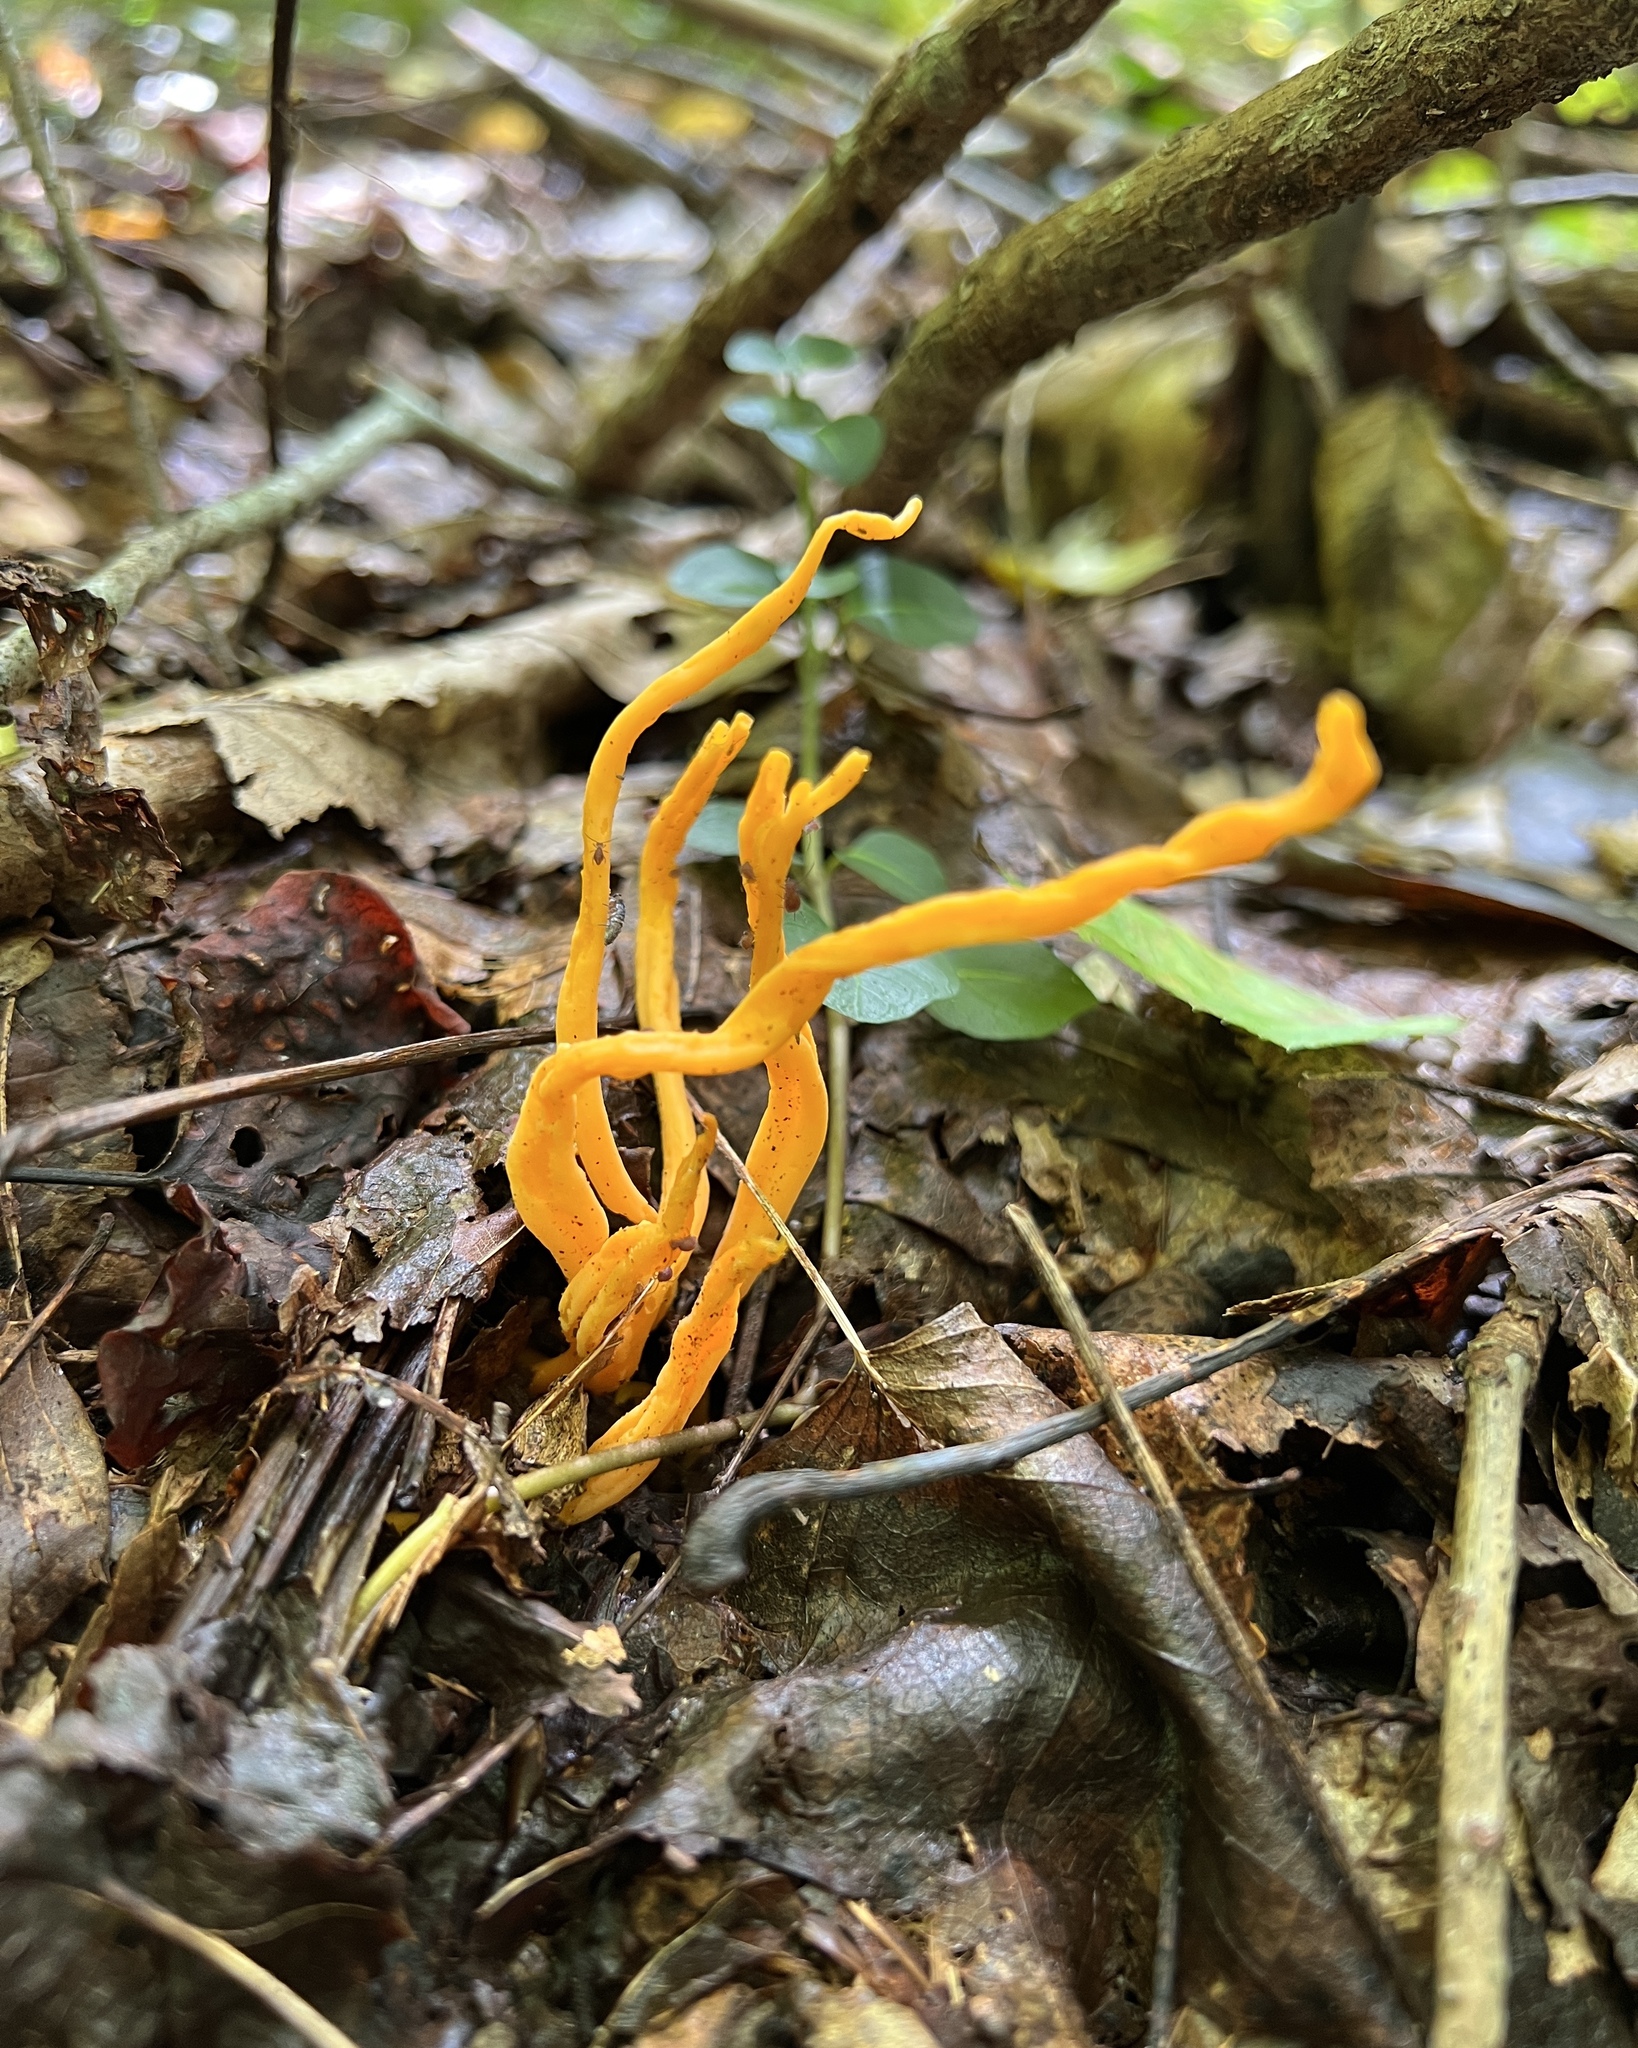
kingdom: Fungi
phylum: Basidiomycota
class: Agaricomycetes
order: Agaricales
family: Clavariaceae
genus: Clavulinopsis
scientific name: Clavulinopsis aurantiocinnabarina
